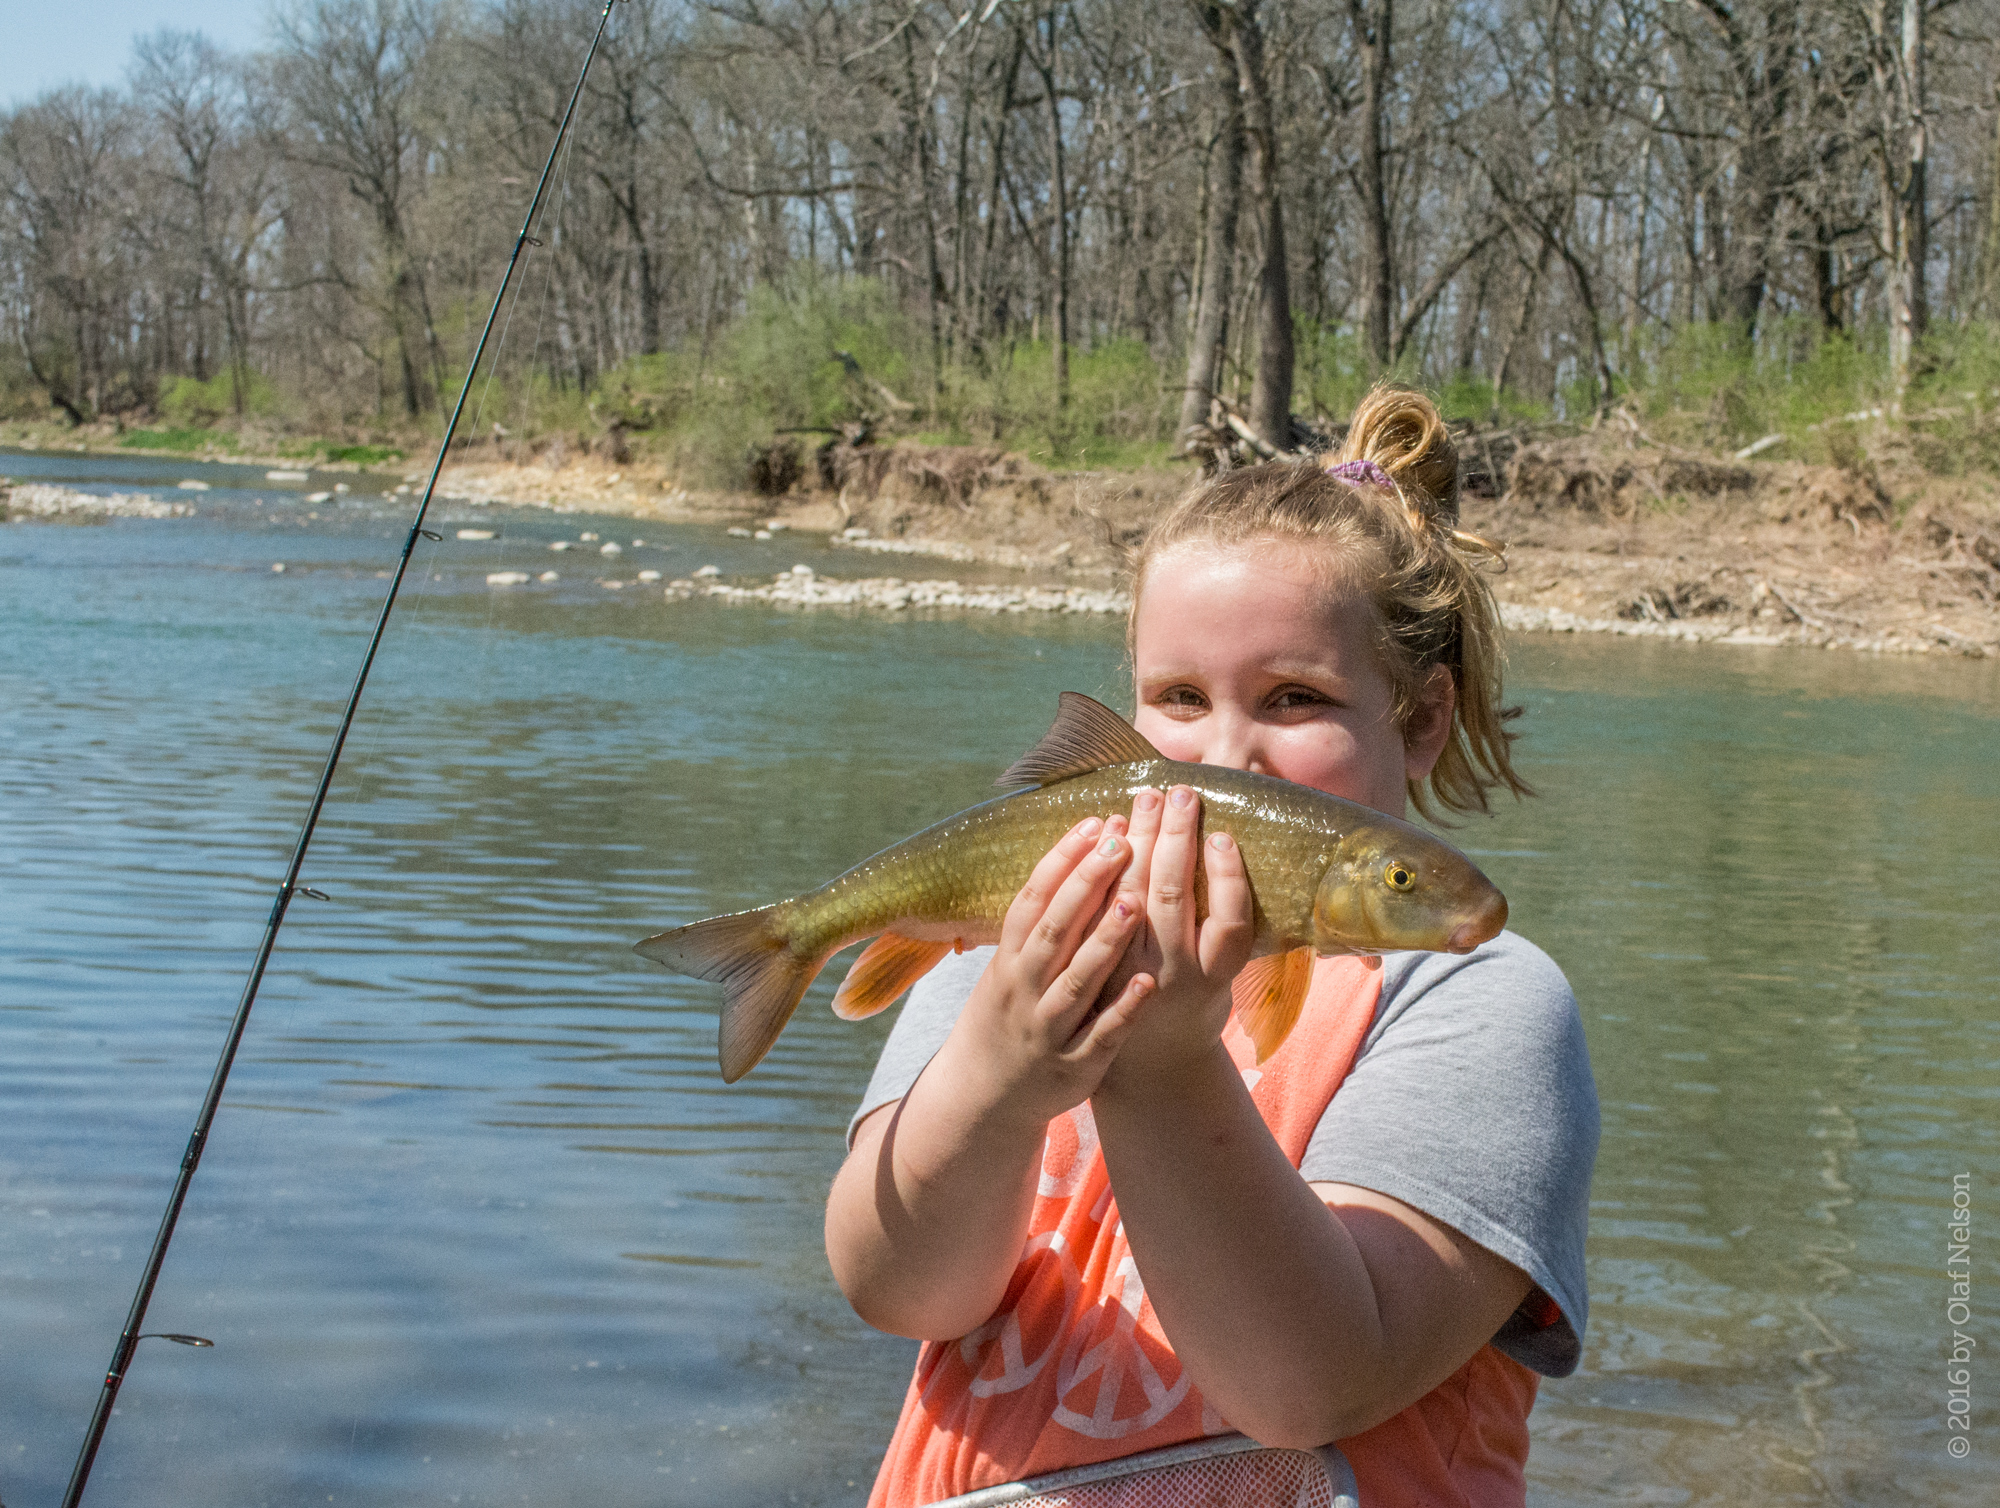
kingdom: Animalia
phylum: Chordata
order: Cypriniformes
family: Catostomidae
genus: Moxostoma
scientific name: Moxostoma duquesnii
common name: Black redhorse
